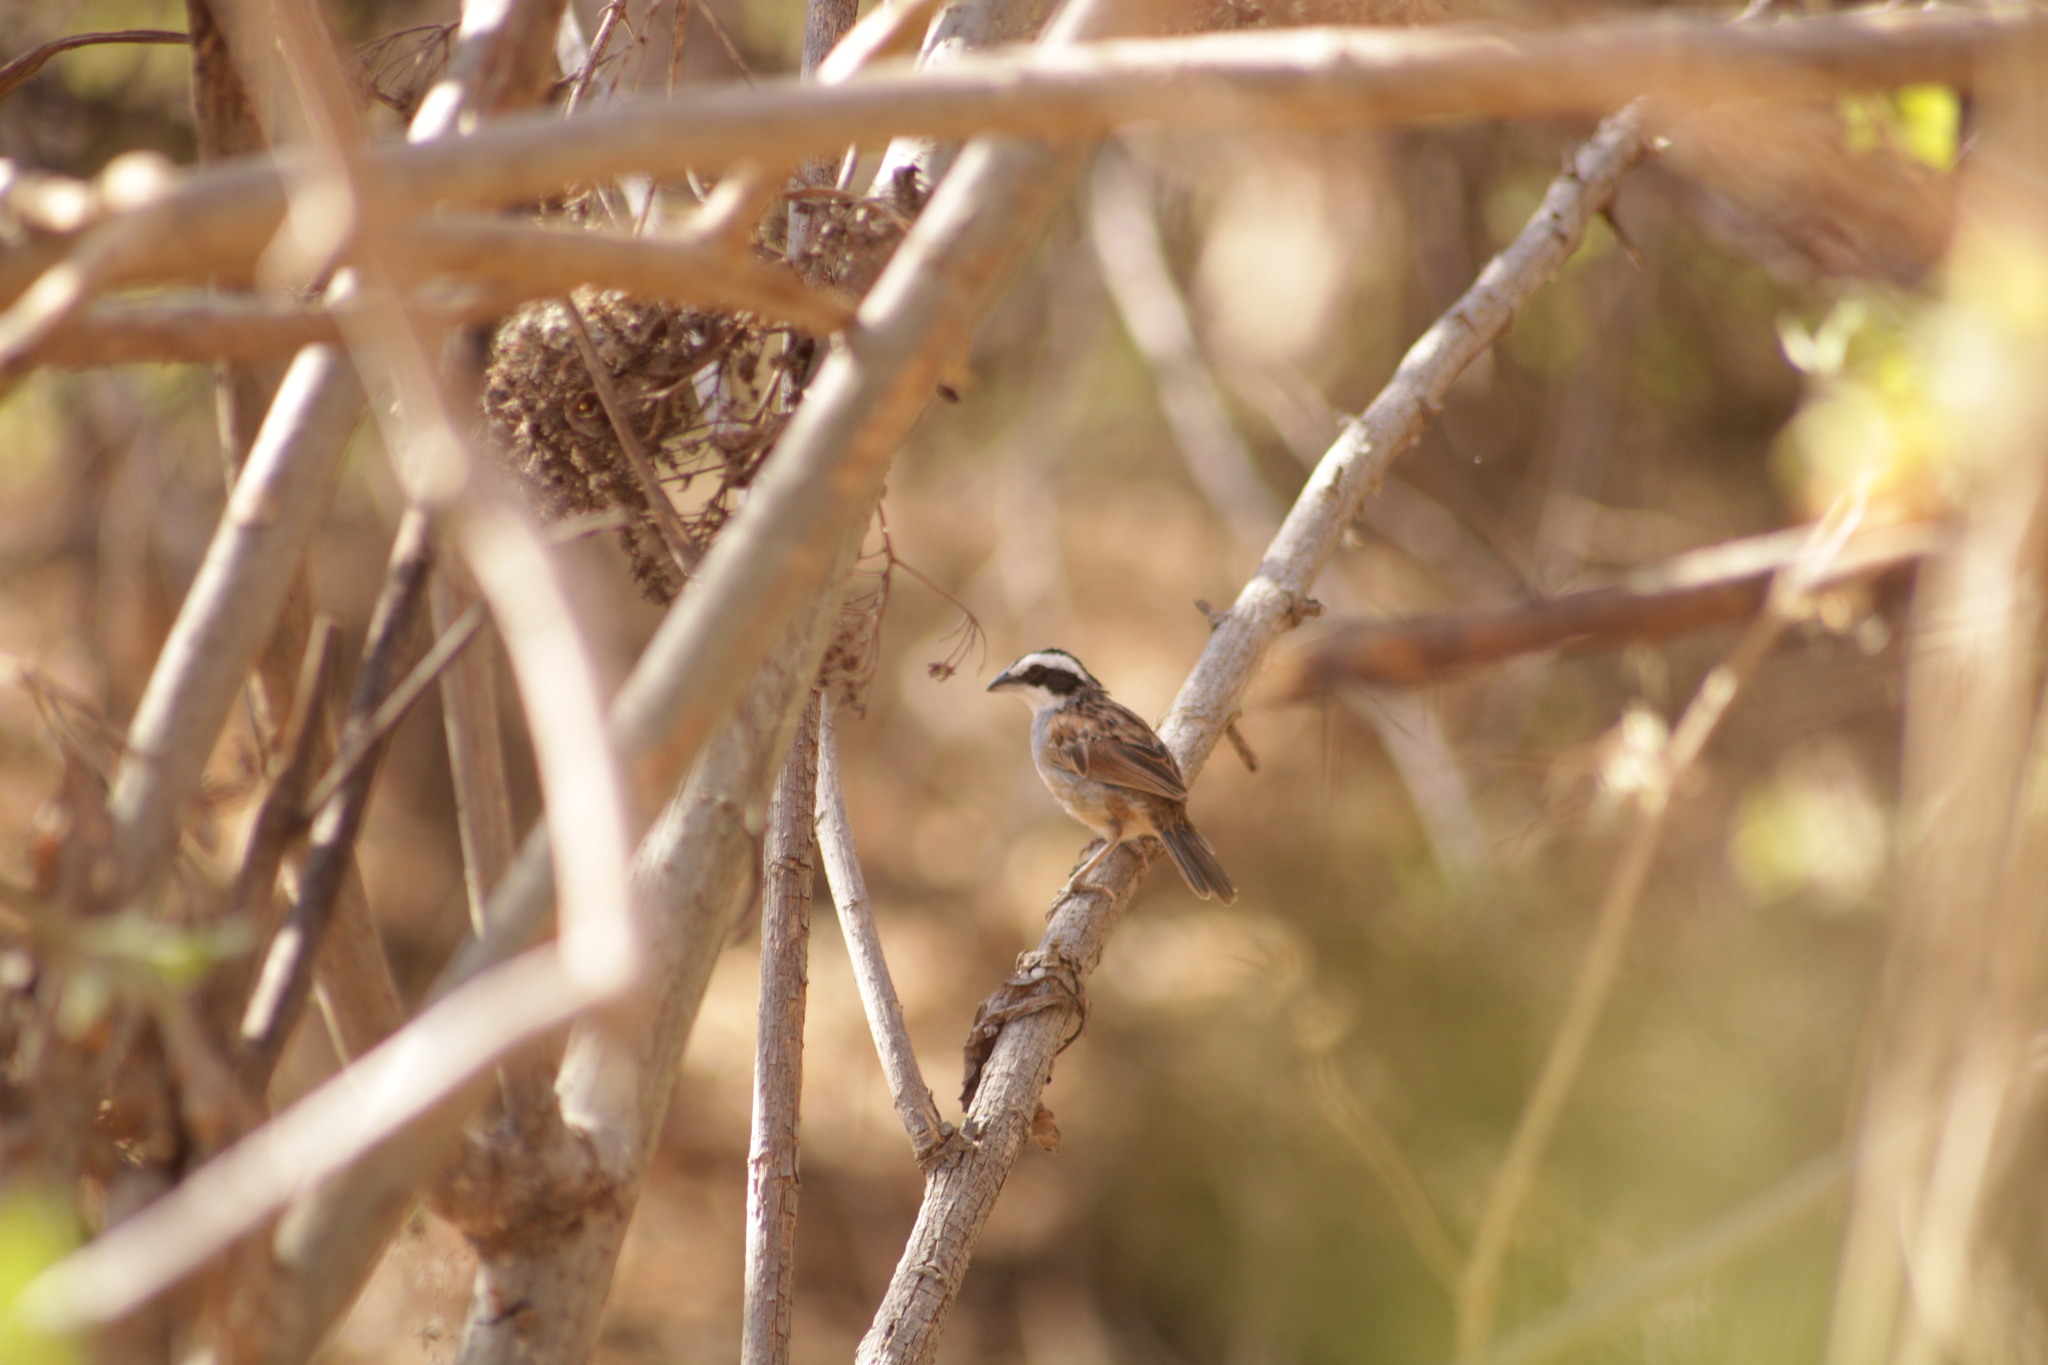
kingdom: Animalia
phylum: Chordata
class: Aves
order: Passeriformes
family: Passerellidae
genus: Peucaea
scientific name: Peucaea ruficauda
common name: Stripe-headed sparrow
